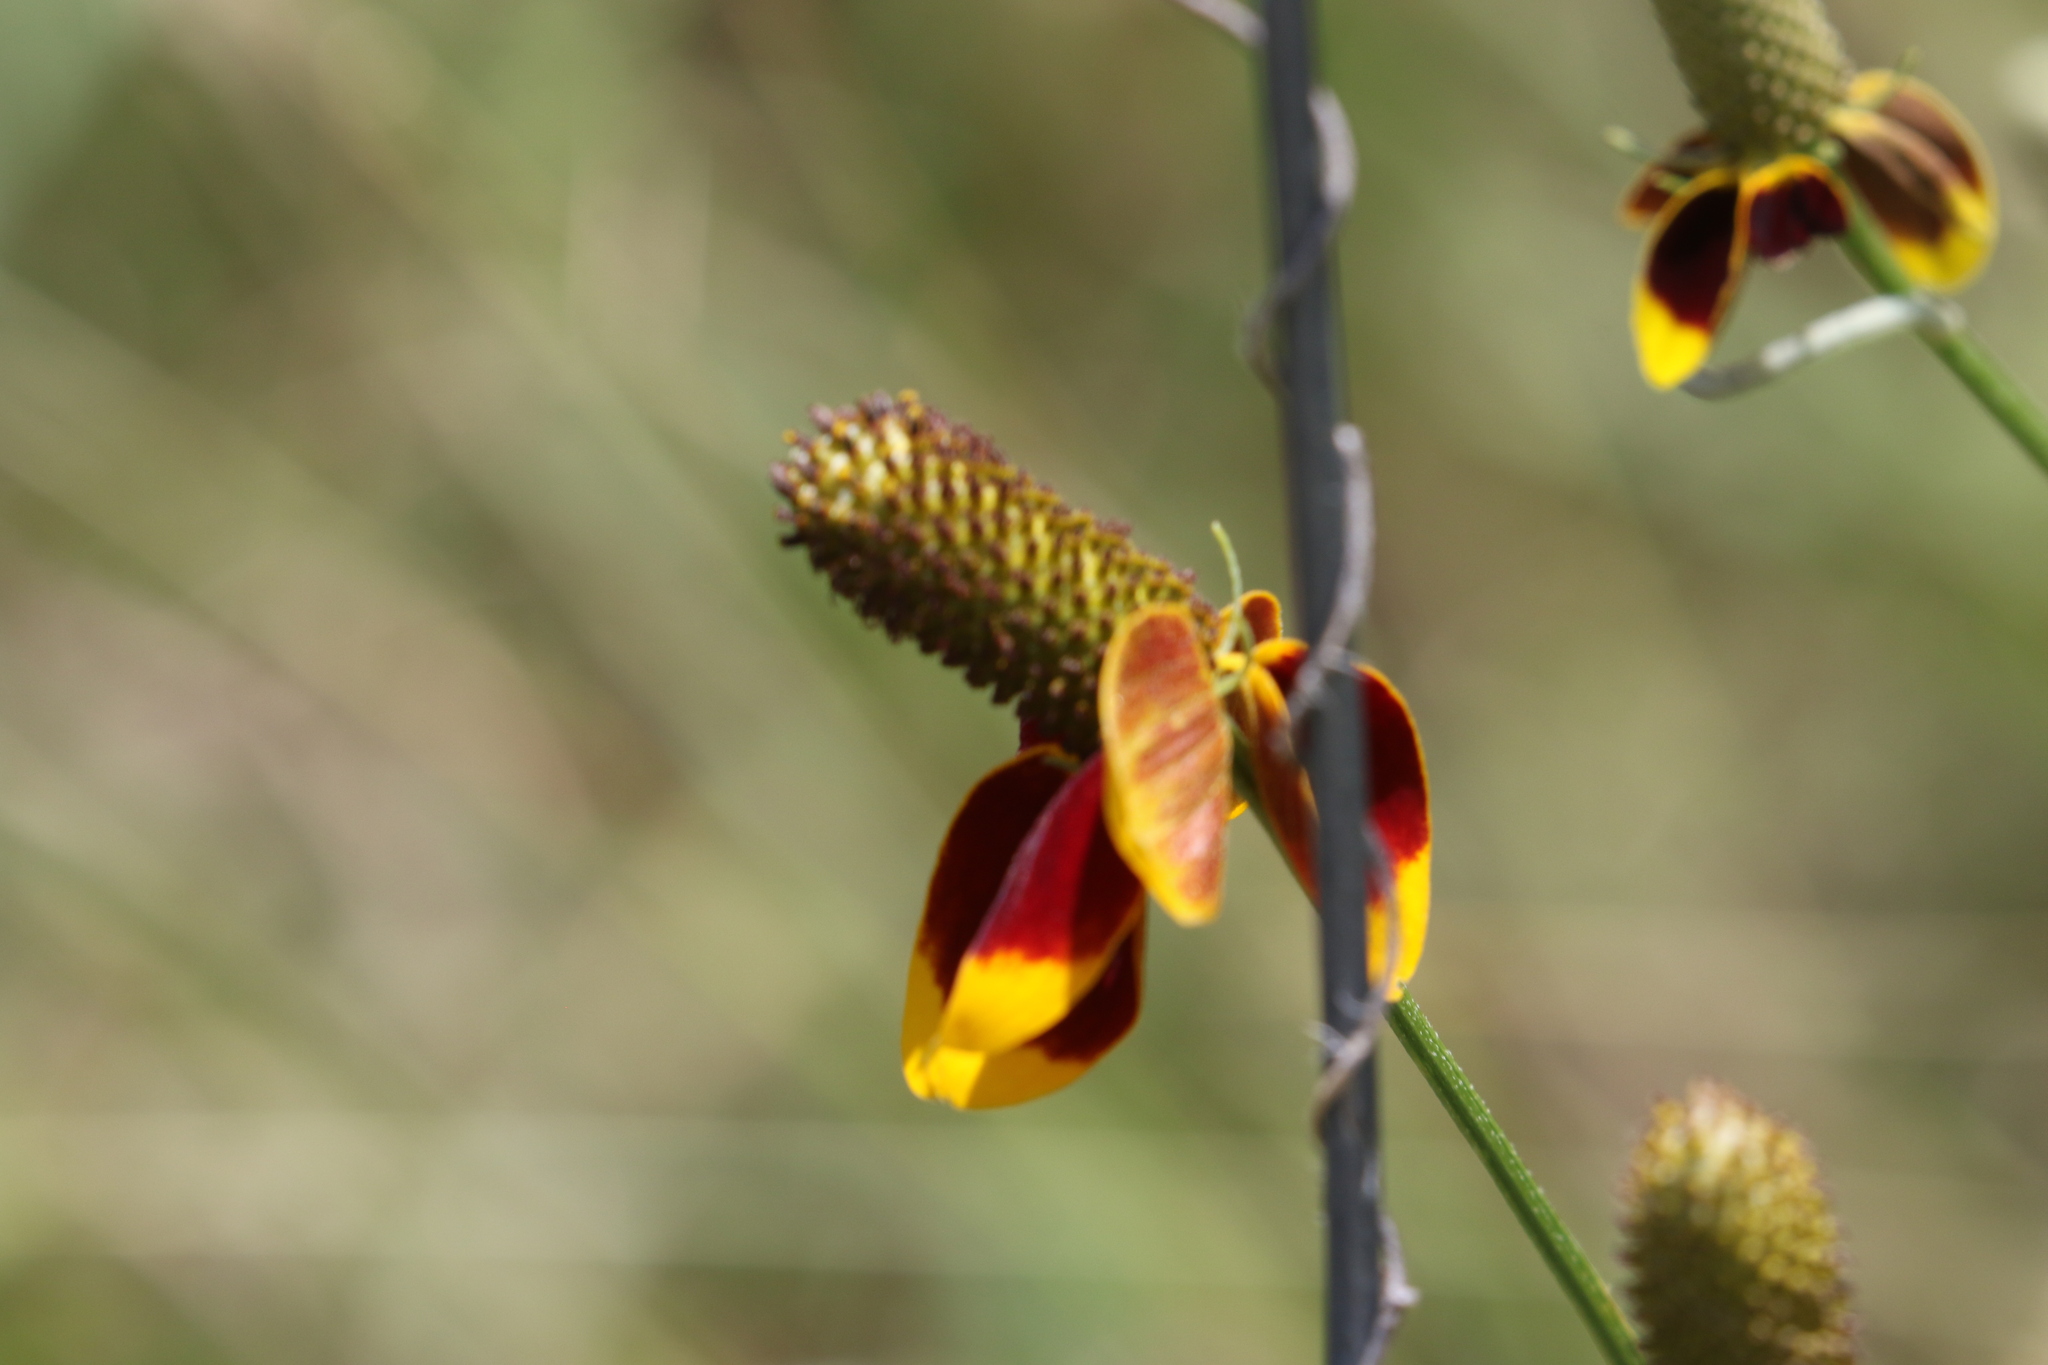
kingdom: Plantae
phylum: Tracheophyta
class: Magnoliopsida
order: Asterales
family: Asteraceae
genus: Ratibida
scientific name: Ratibida columnifera
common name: Prairie coneflower
